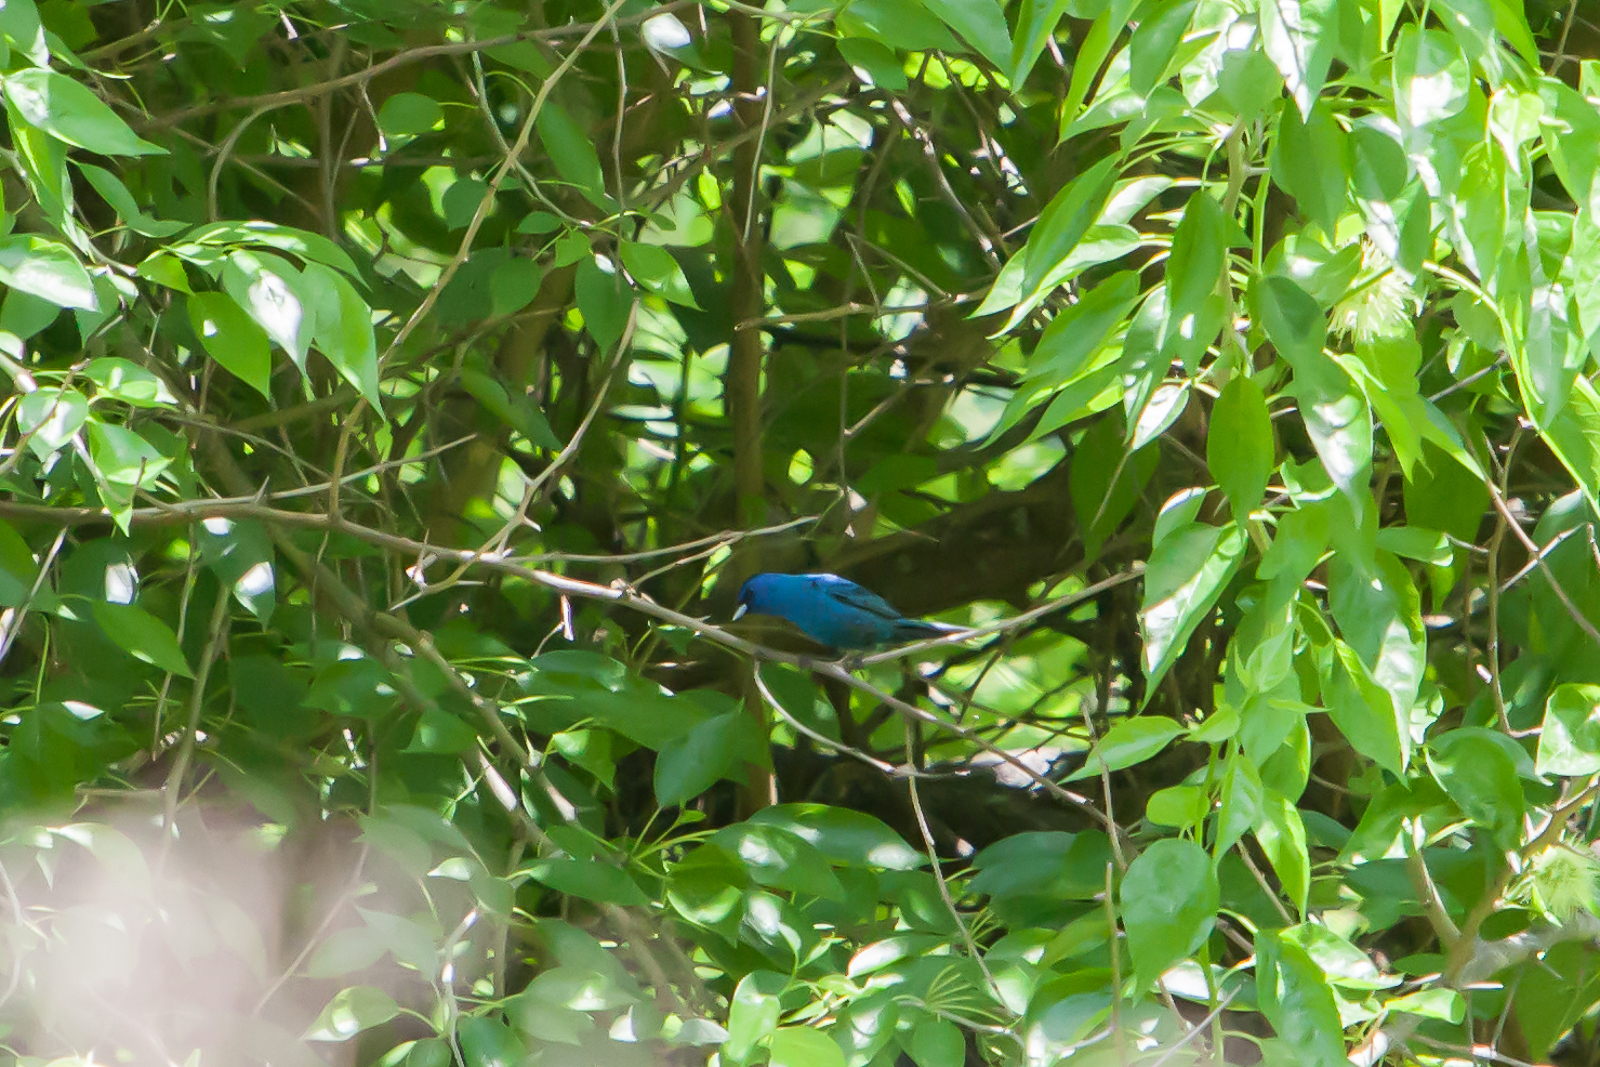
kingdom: Animalia
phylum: Chordata
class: Aves
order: Passeriformes
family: Cardinalidae
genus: Passerina
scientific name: Passerina cyanea
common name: Indigo bunting
